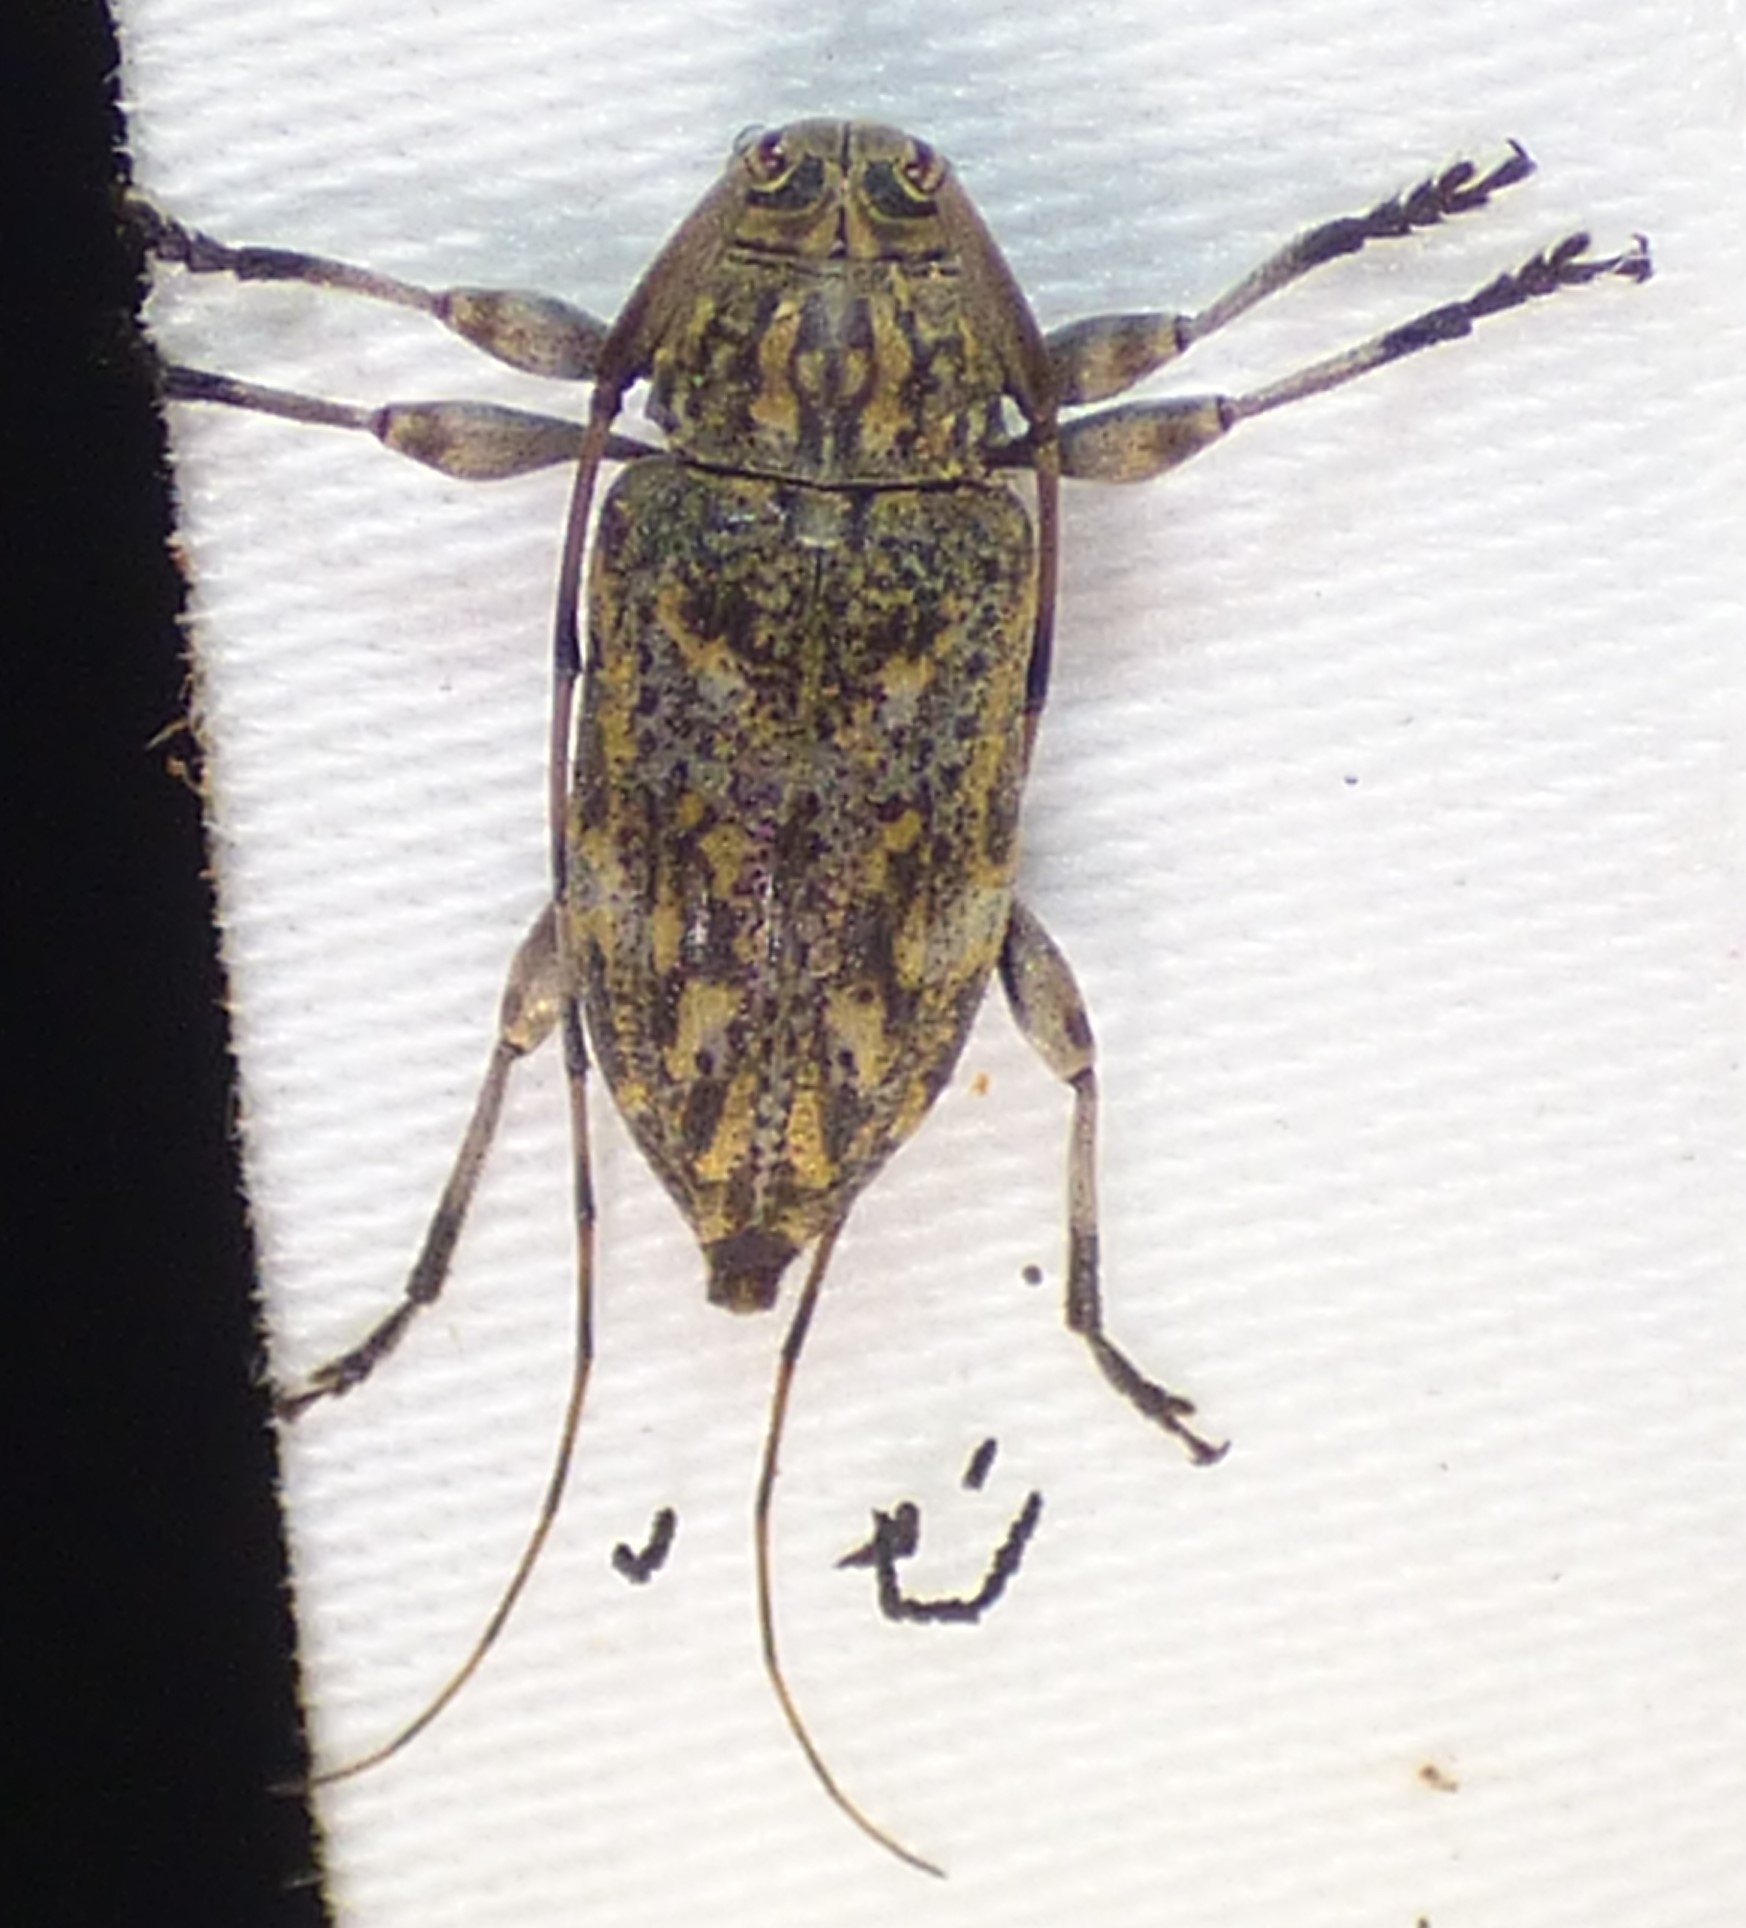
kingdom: Animalia
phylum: Arthropoda
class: Insecta
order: Coleoptera
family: Cerambycidae
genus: Atrypanius
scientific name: Atrypanius haldemani
